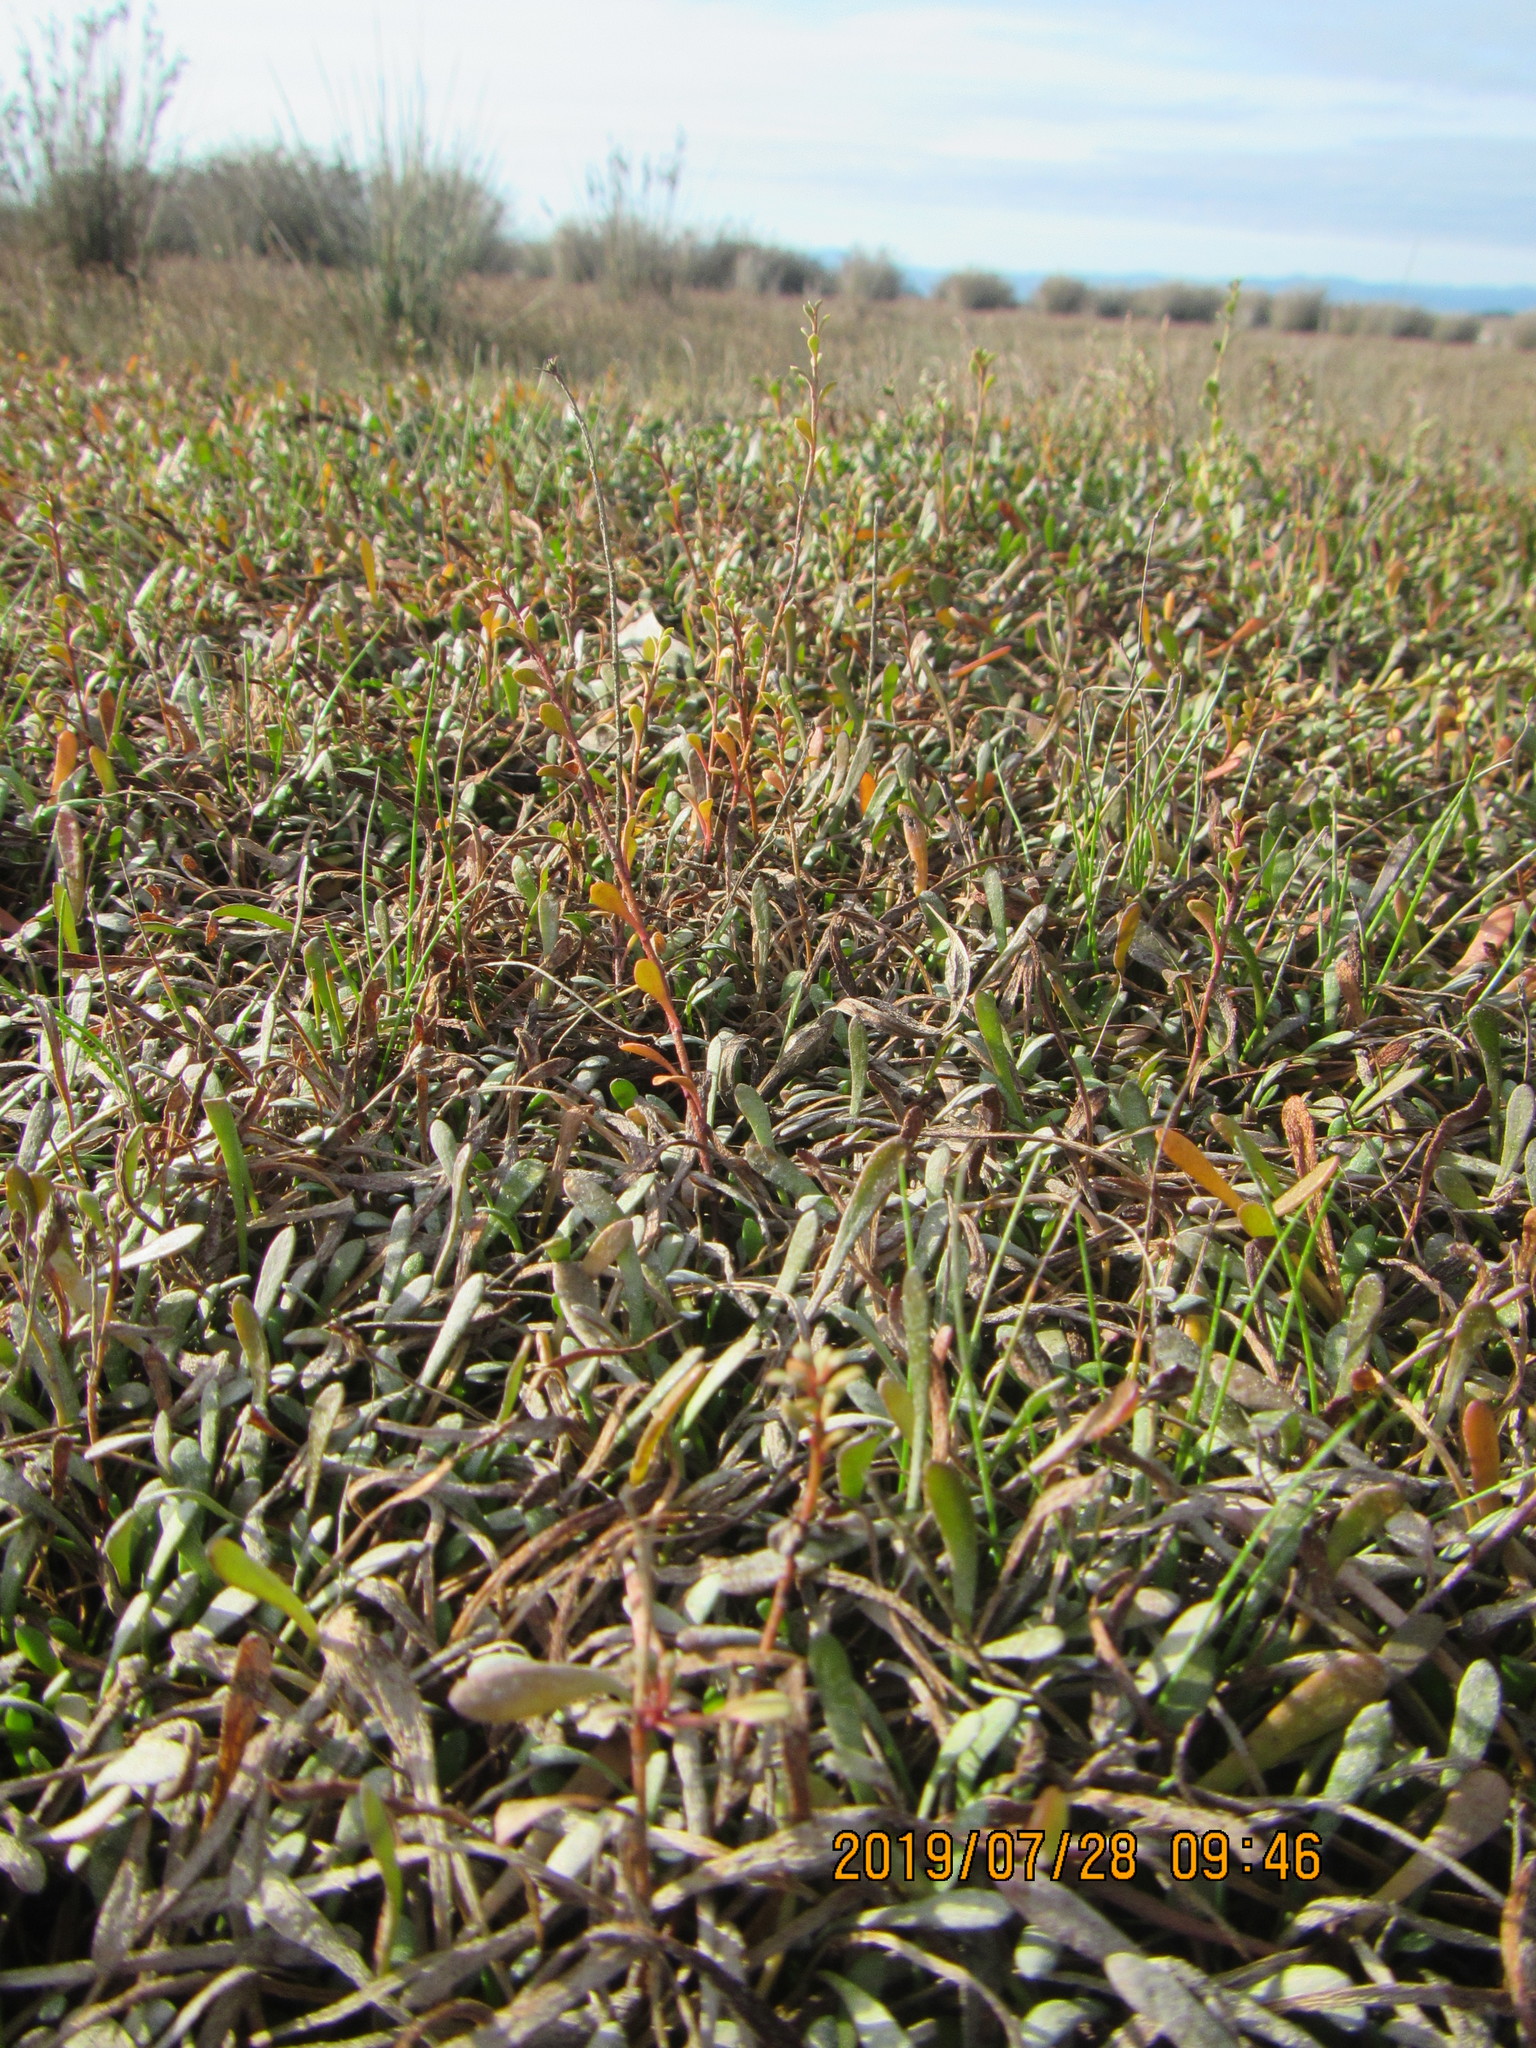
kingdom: Plantae
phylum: Tracheophyta
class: Magnoliopsida
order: Ericales
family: Primulaceae
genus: Samolus
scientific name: Samolus repens
